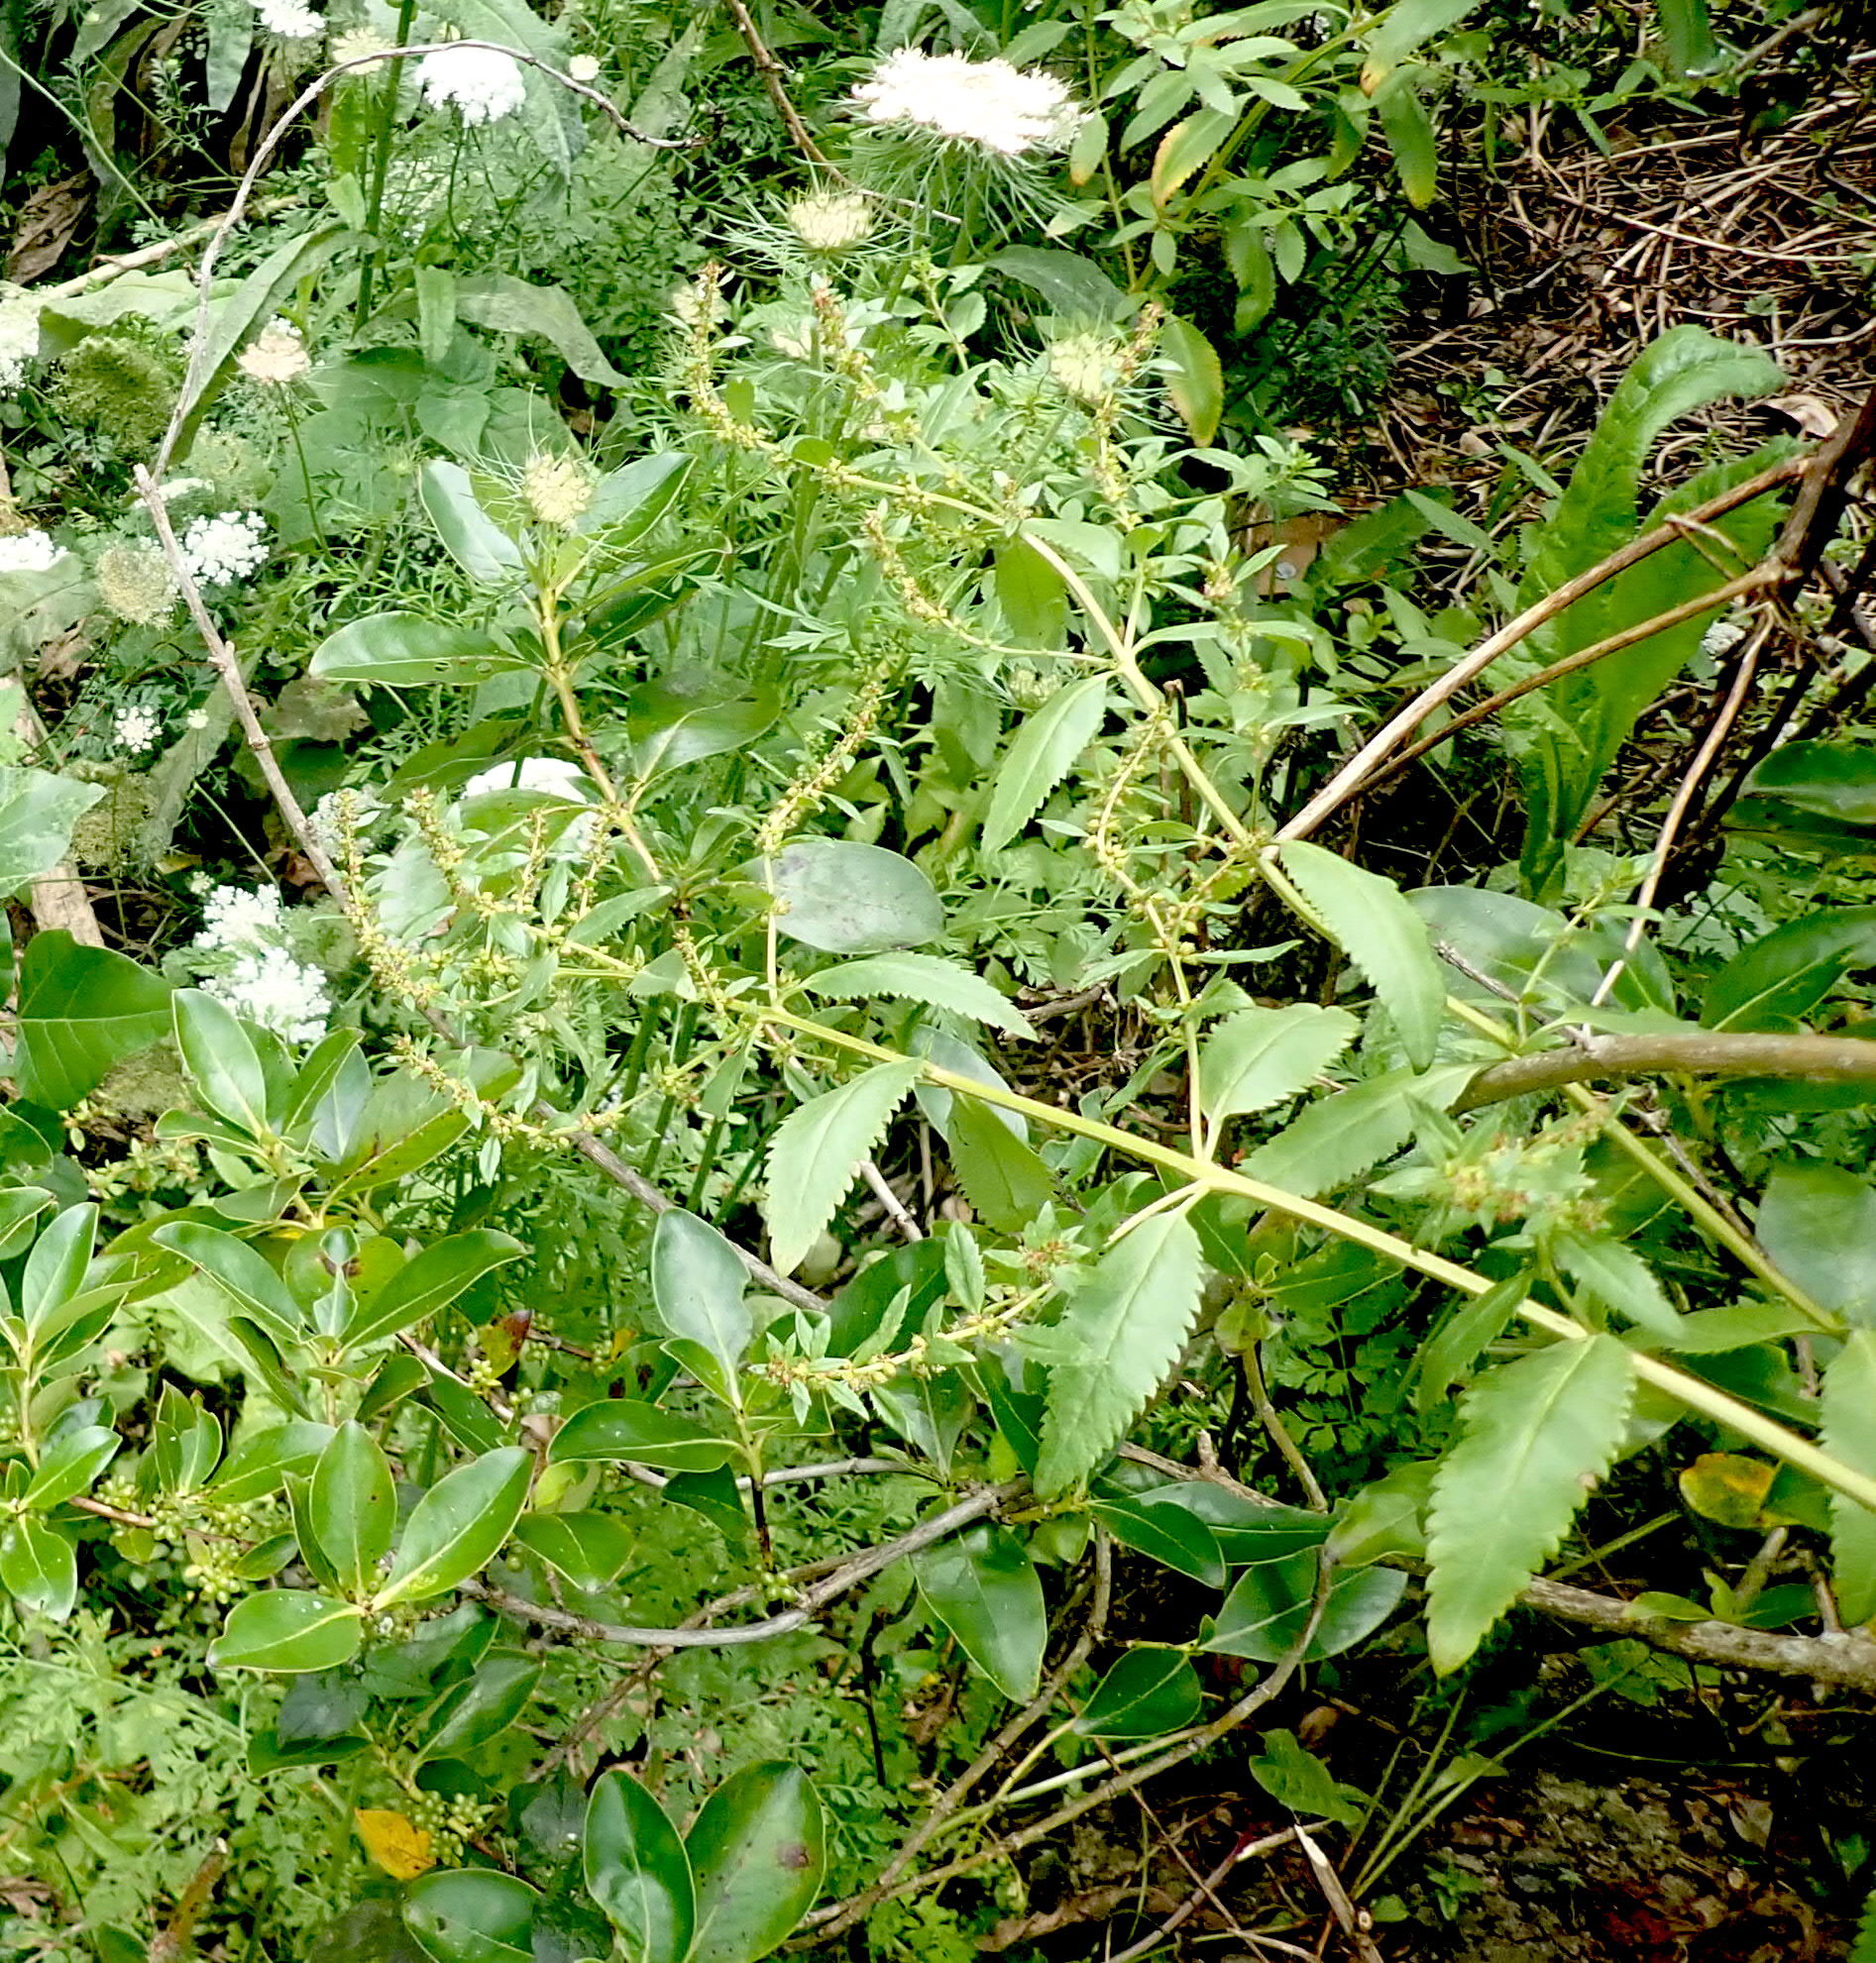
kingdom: Plantae
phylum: Tracheophyta
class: Magnoliopsida
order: Saxifragales
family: Haloragaceae
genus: Haloragis
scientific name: Haloragis erecta
